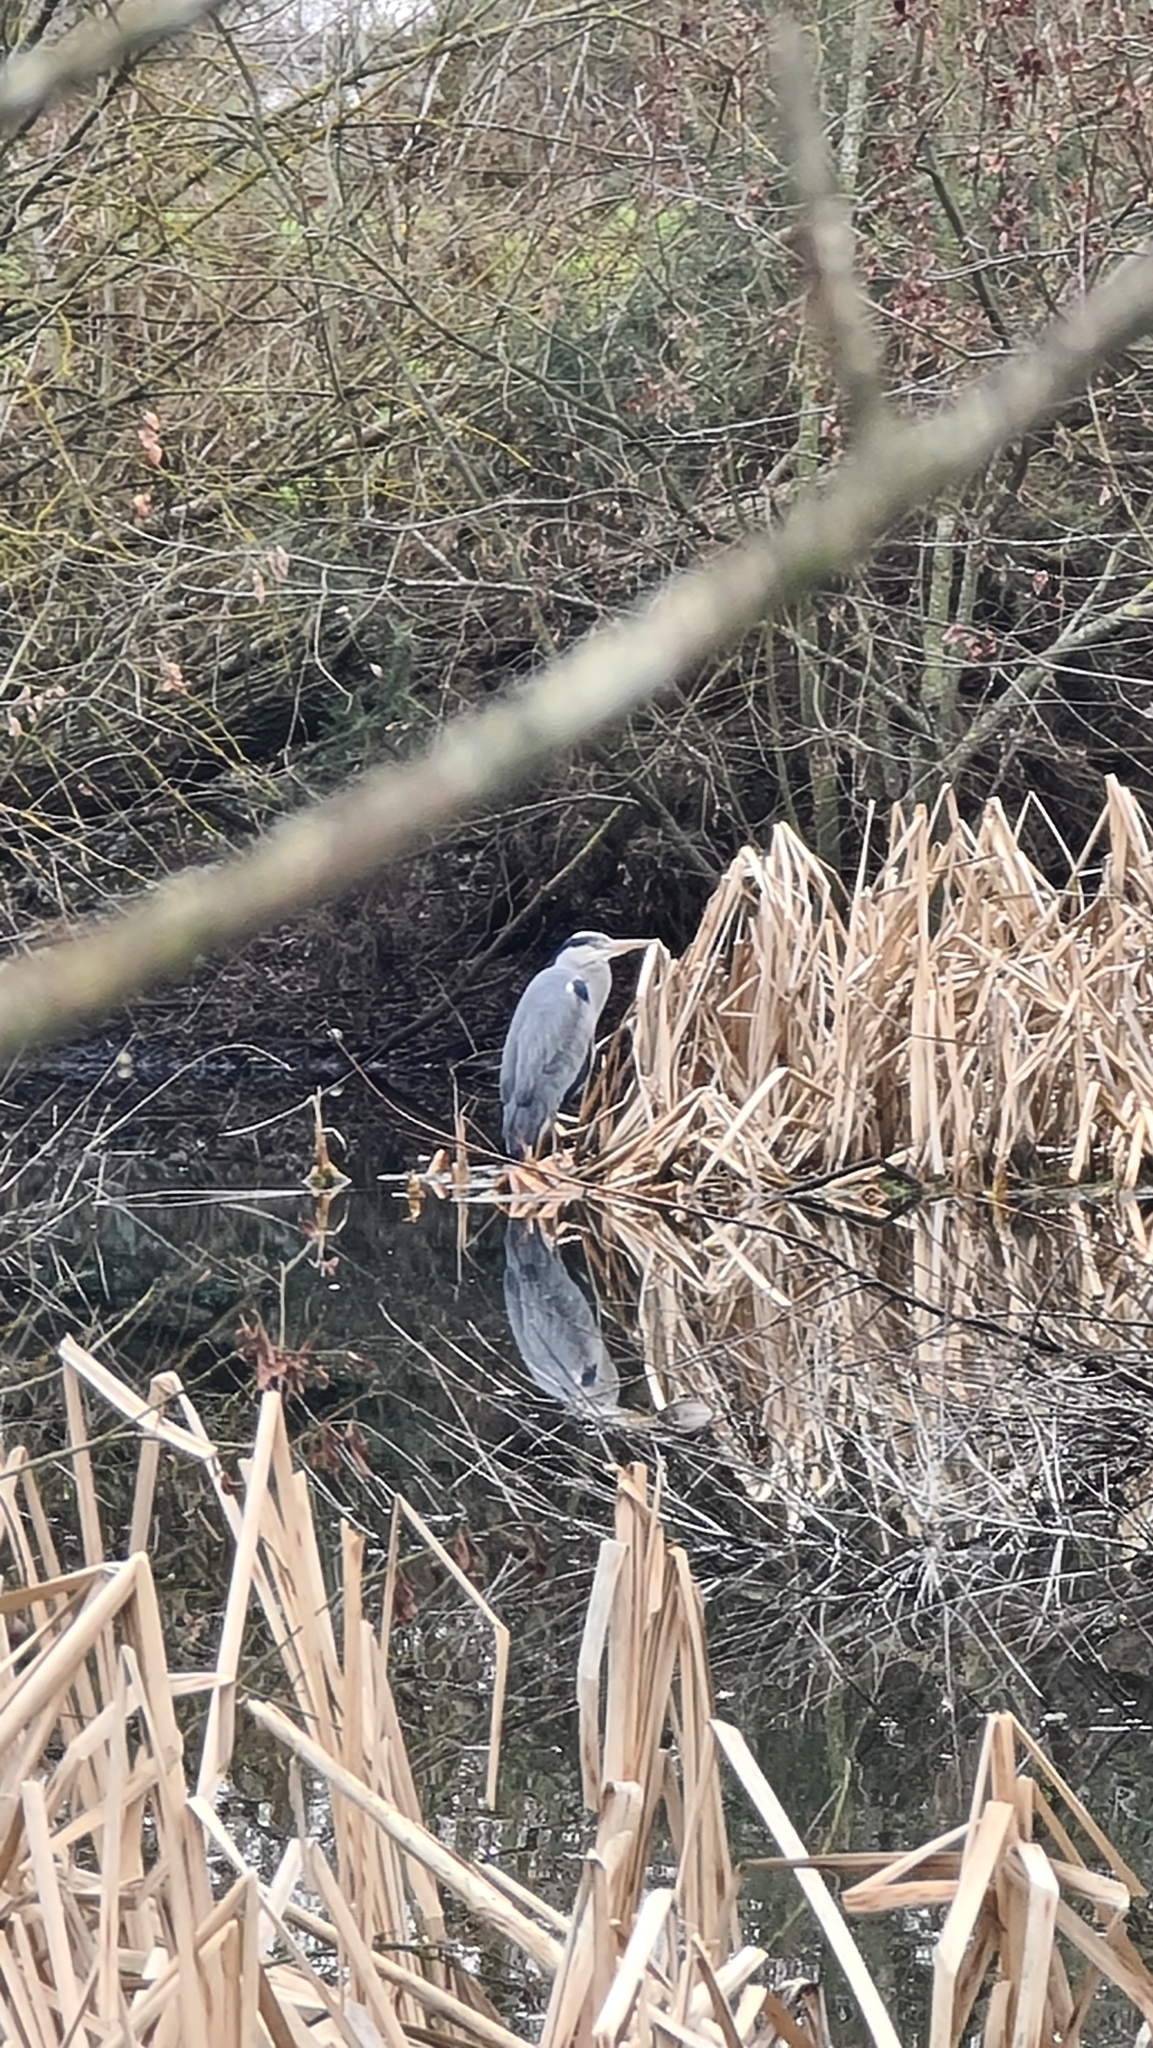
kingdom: Animalia
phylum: Chordata
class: Aves
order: Pelecaniformes
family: Ardeidae
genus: Ardea
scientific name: Ardea cinerea
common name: Grey heron
